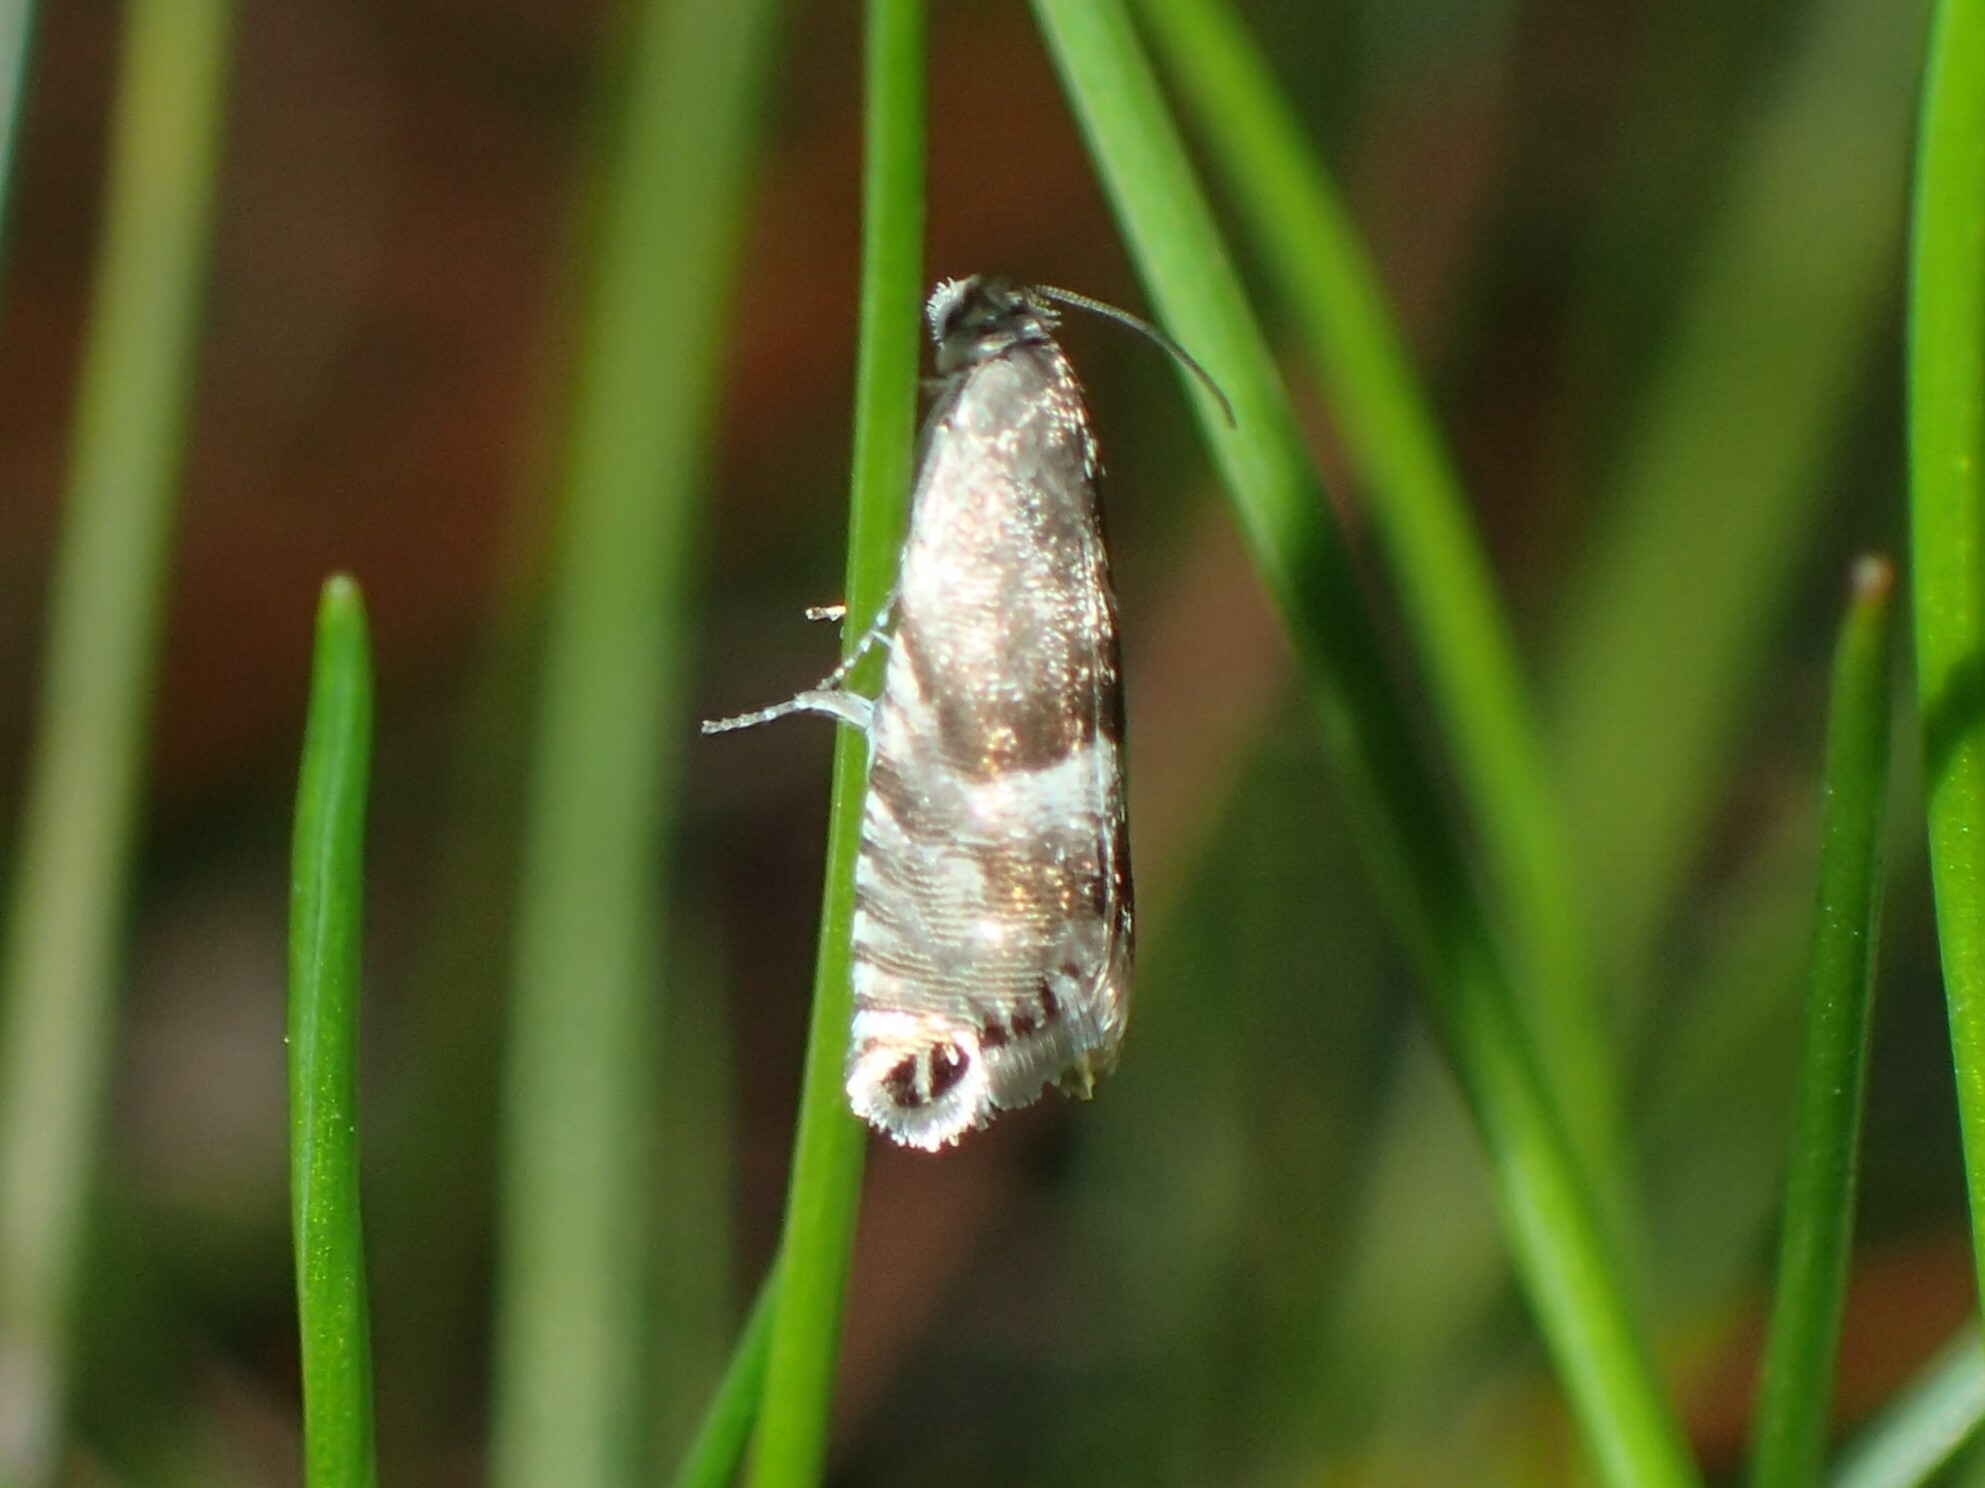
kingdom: Animalia
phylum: Arthropoda
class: Insecta
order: Lepidoptera
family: Tortricidae
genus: Sereda
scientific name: Sereda tautana
